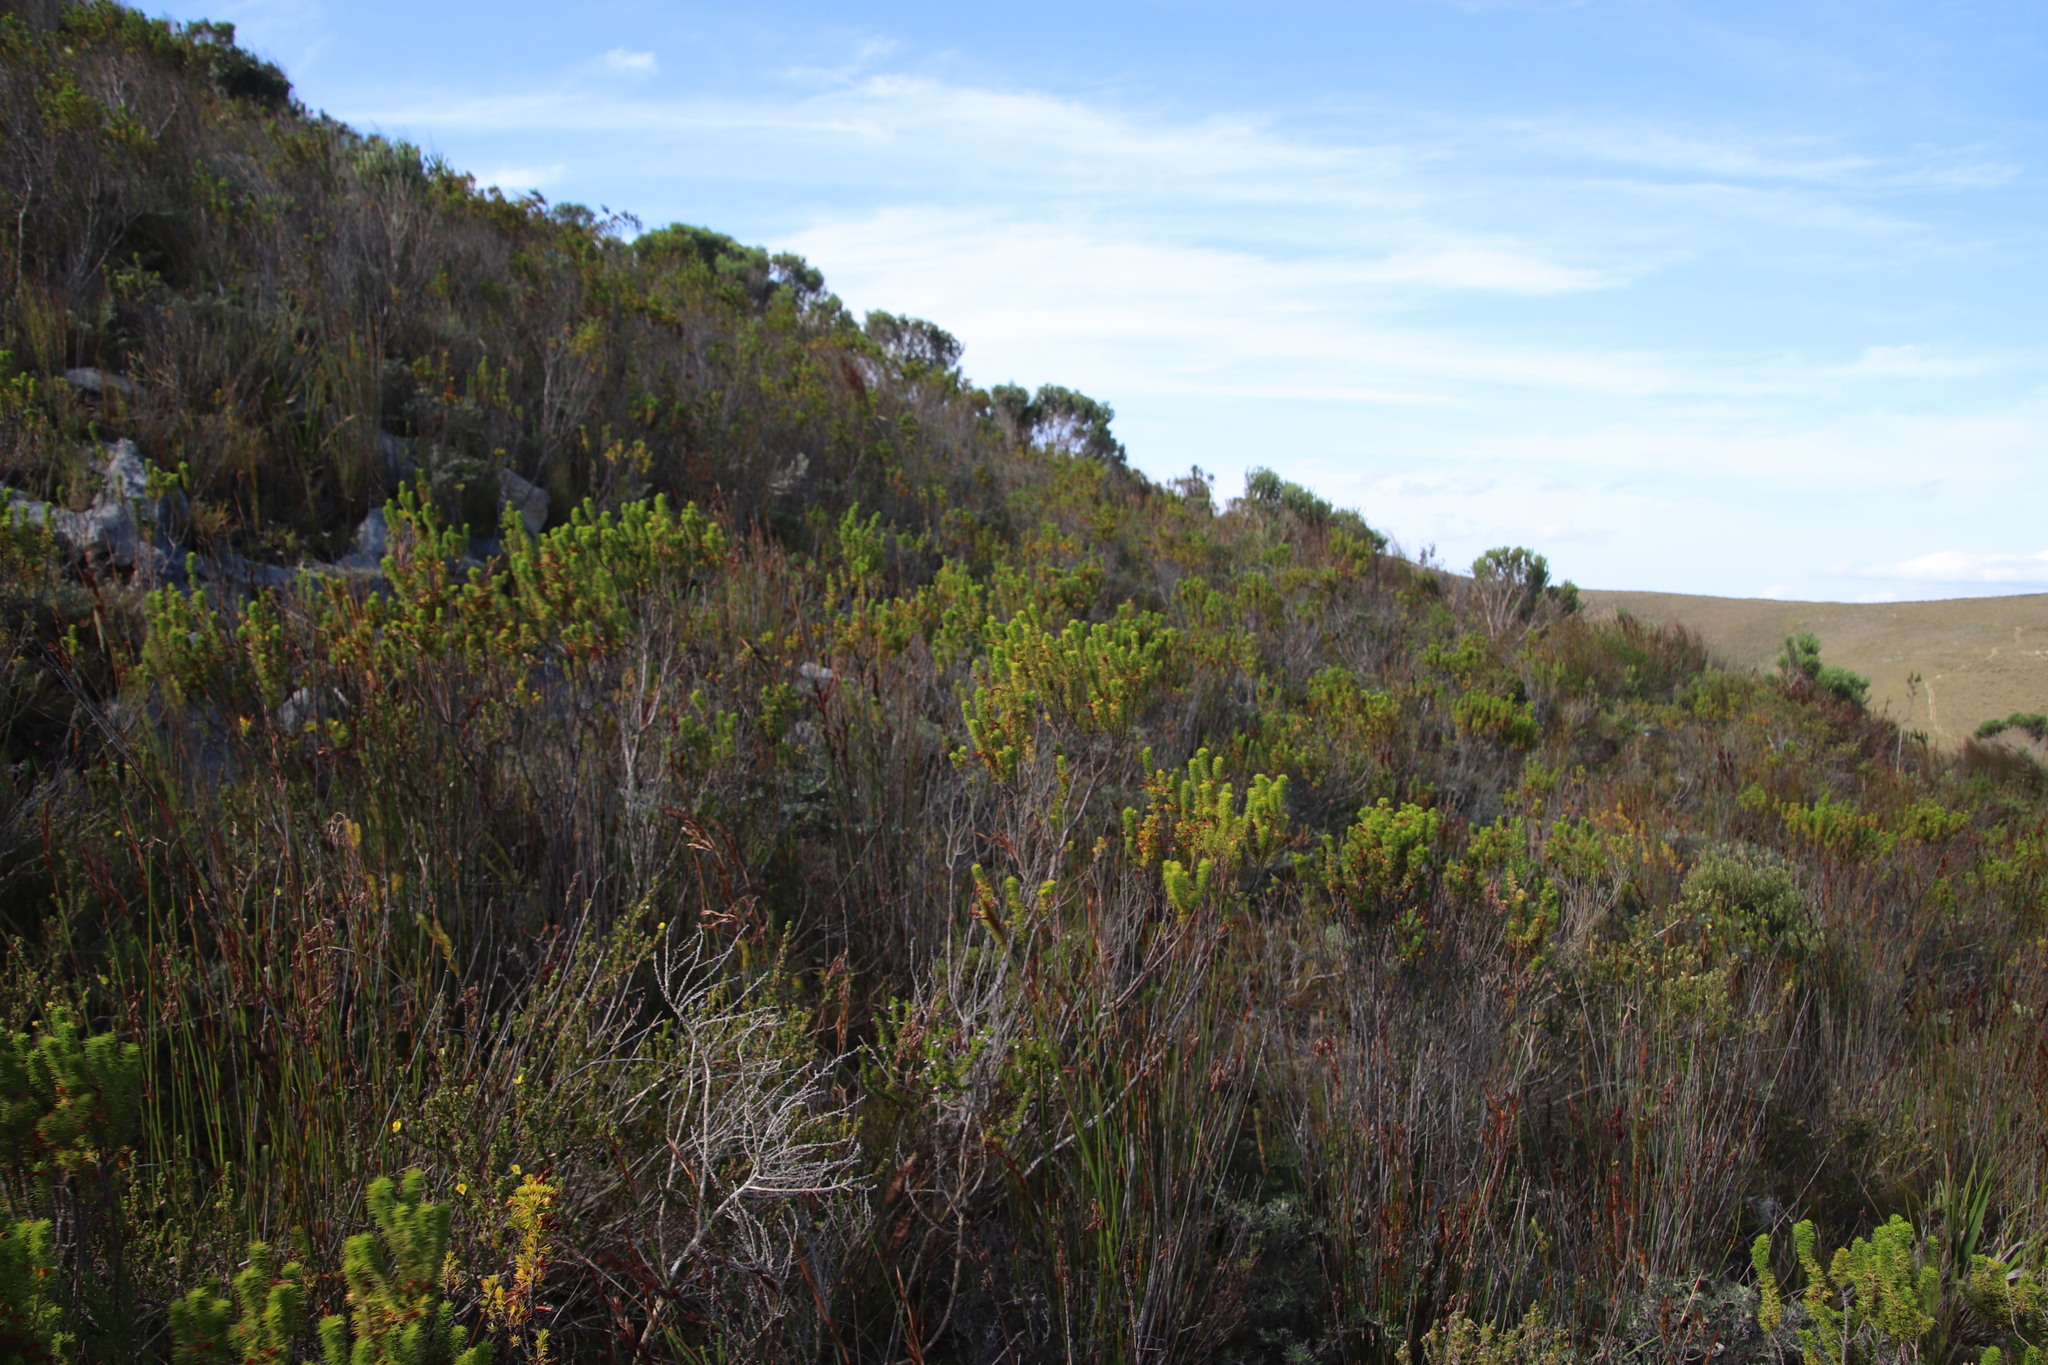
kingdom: Plantae
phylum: Tracheophyta
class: Magnoliopsida
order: Ericales
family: Ericaceae
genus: Erica
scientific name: Erica coccinea
